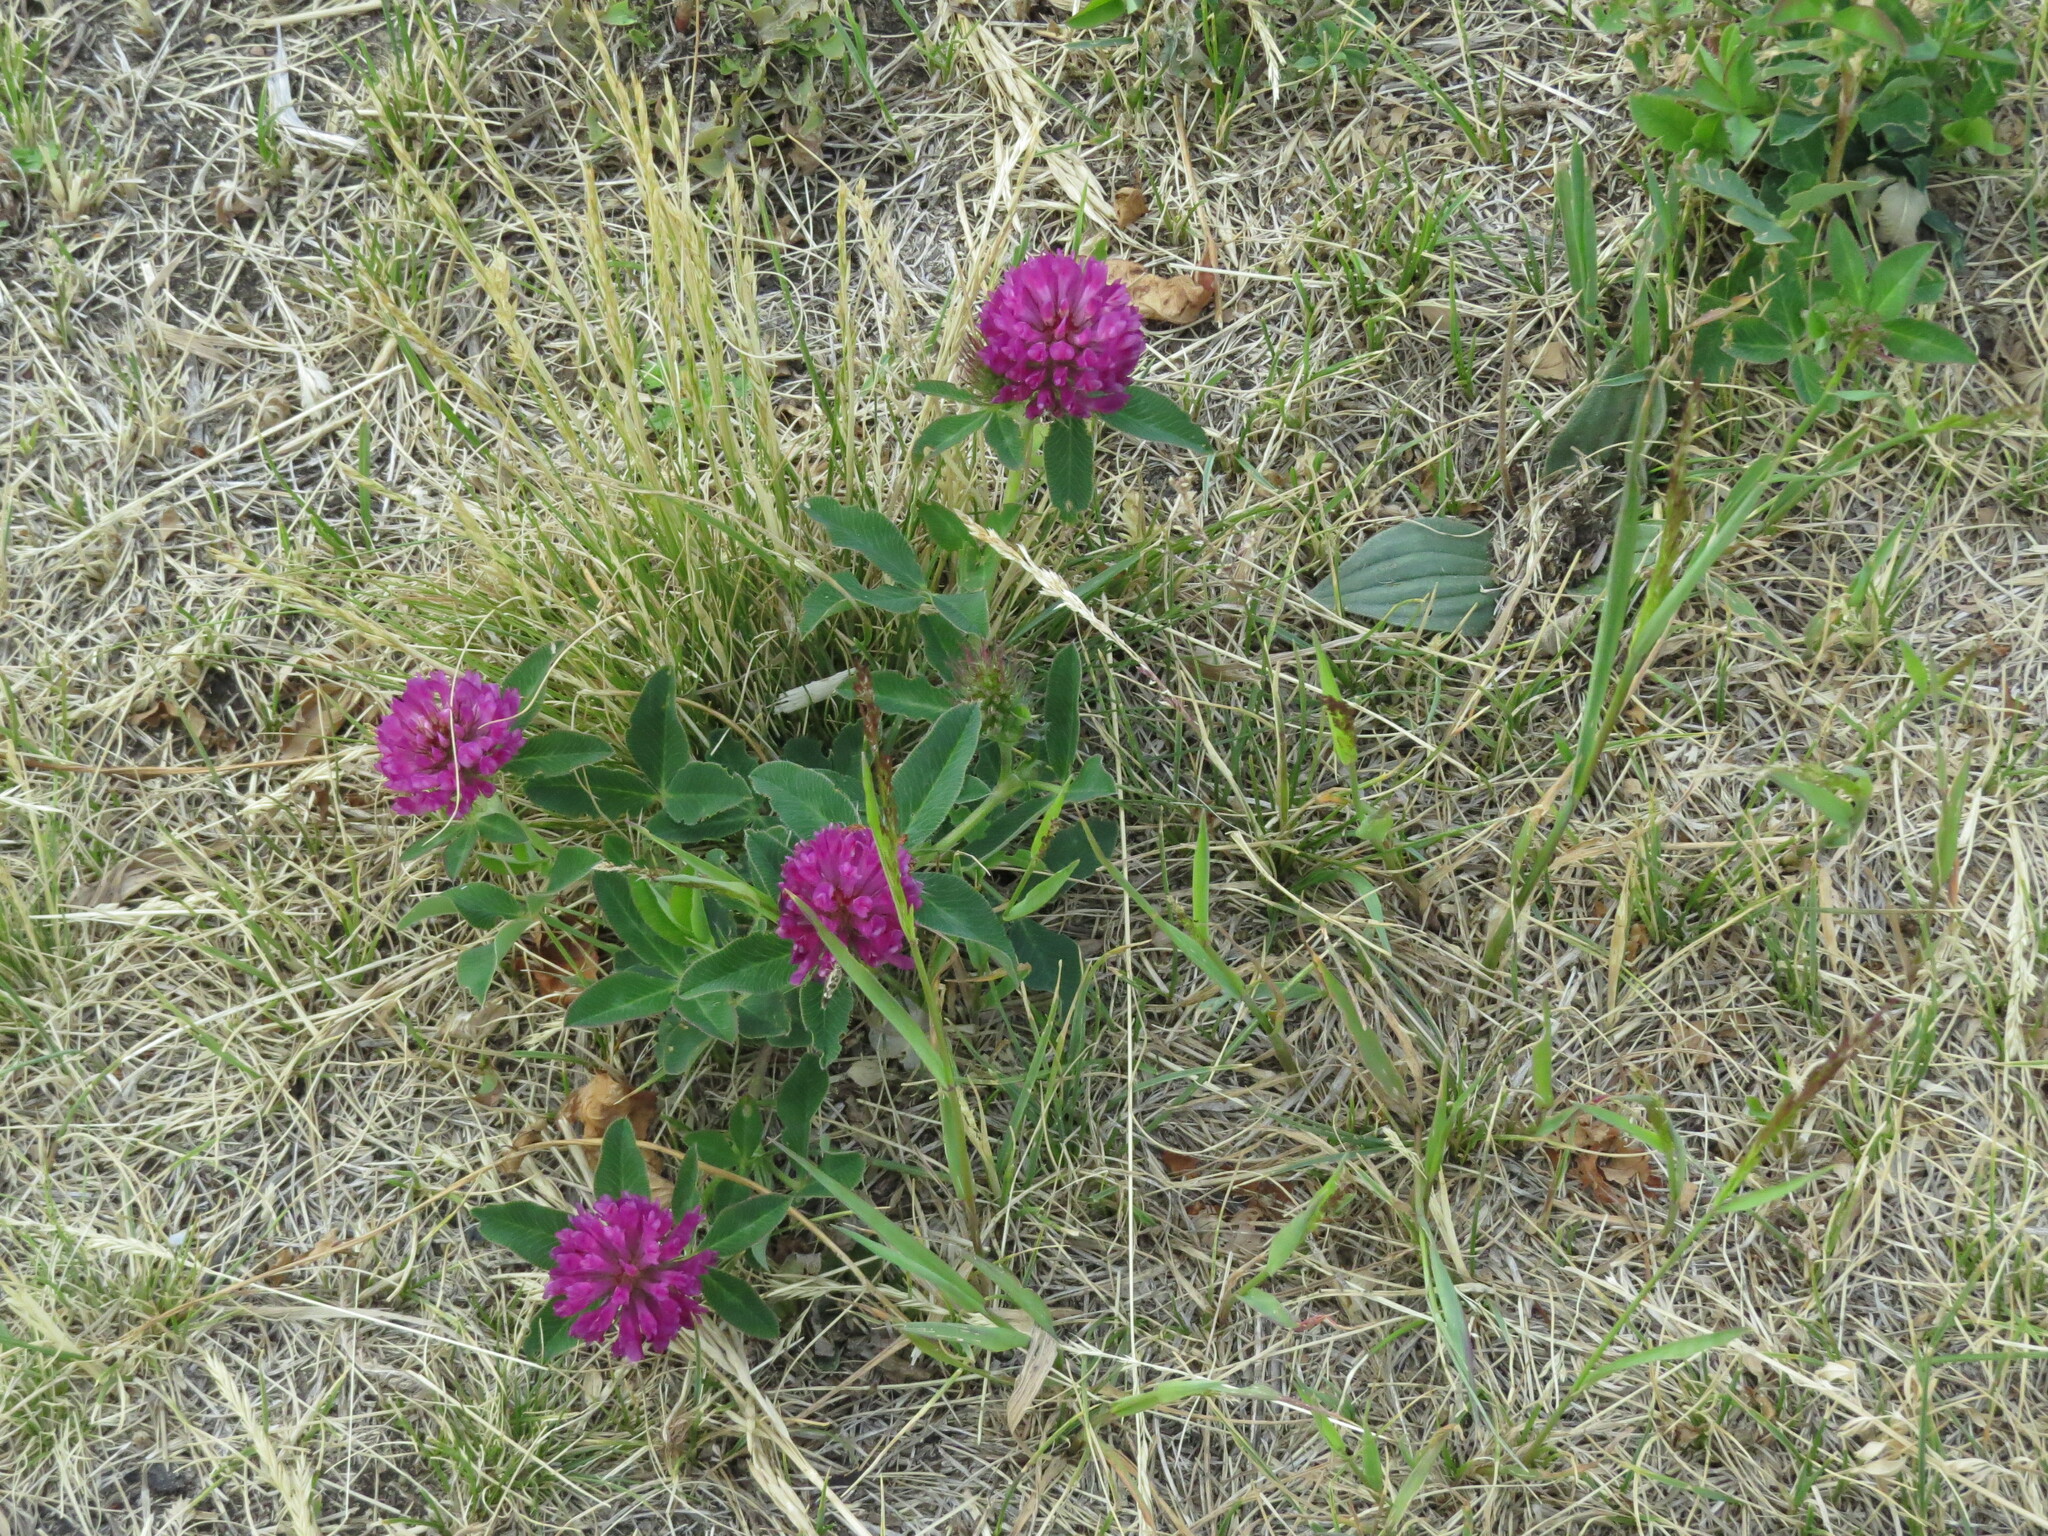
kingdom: Plantae
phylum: Tracheophyta
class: Magnoliopsida
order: Fabales
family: Fabaceae
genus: Trifolium
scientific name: Trifolium medium
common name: Zigzag clover
